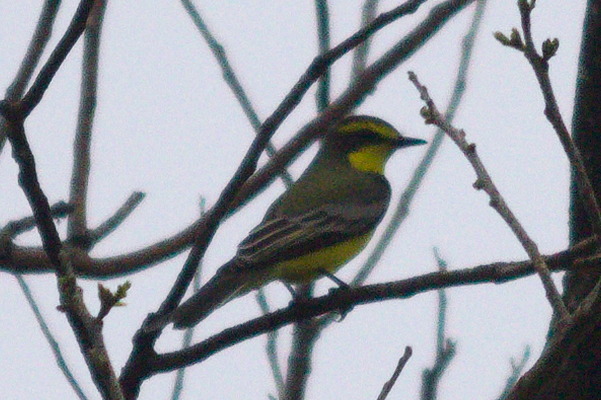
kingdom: Animalia
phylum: Chordata
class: Aves
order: Passeriformes
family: Tyrannidae
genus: Satrapa
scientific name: Satrapa icterophrys
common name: Yellow-browed tyrant
